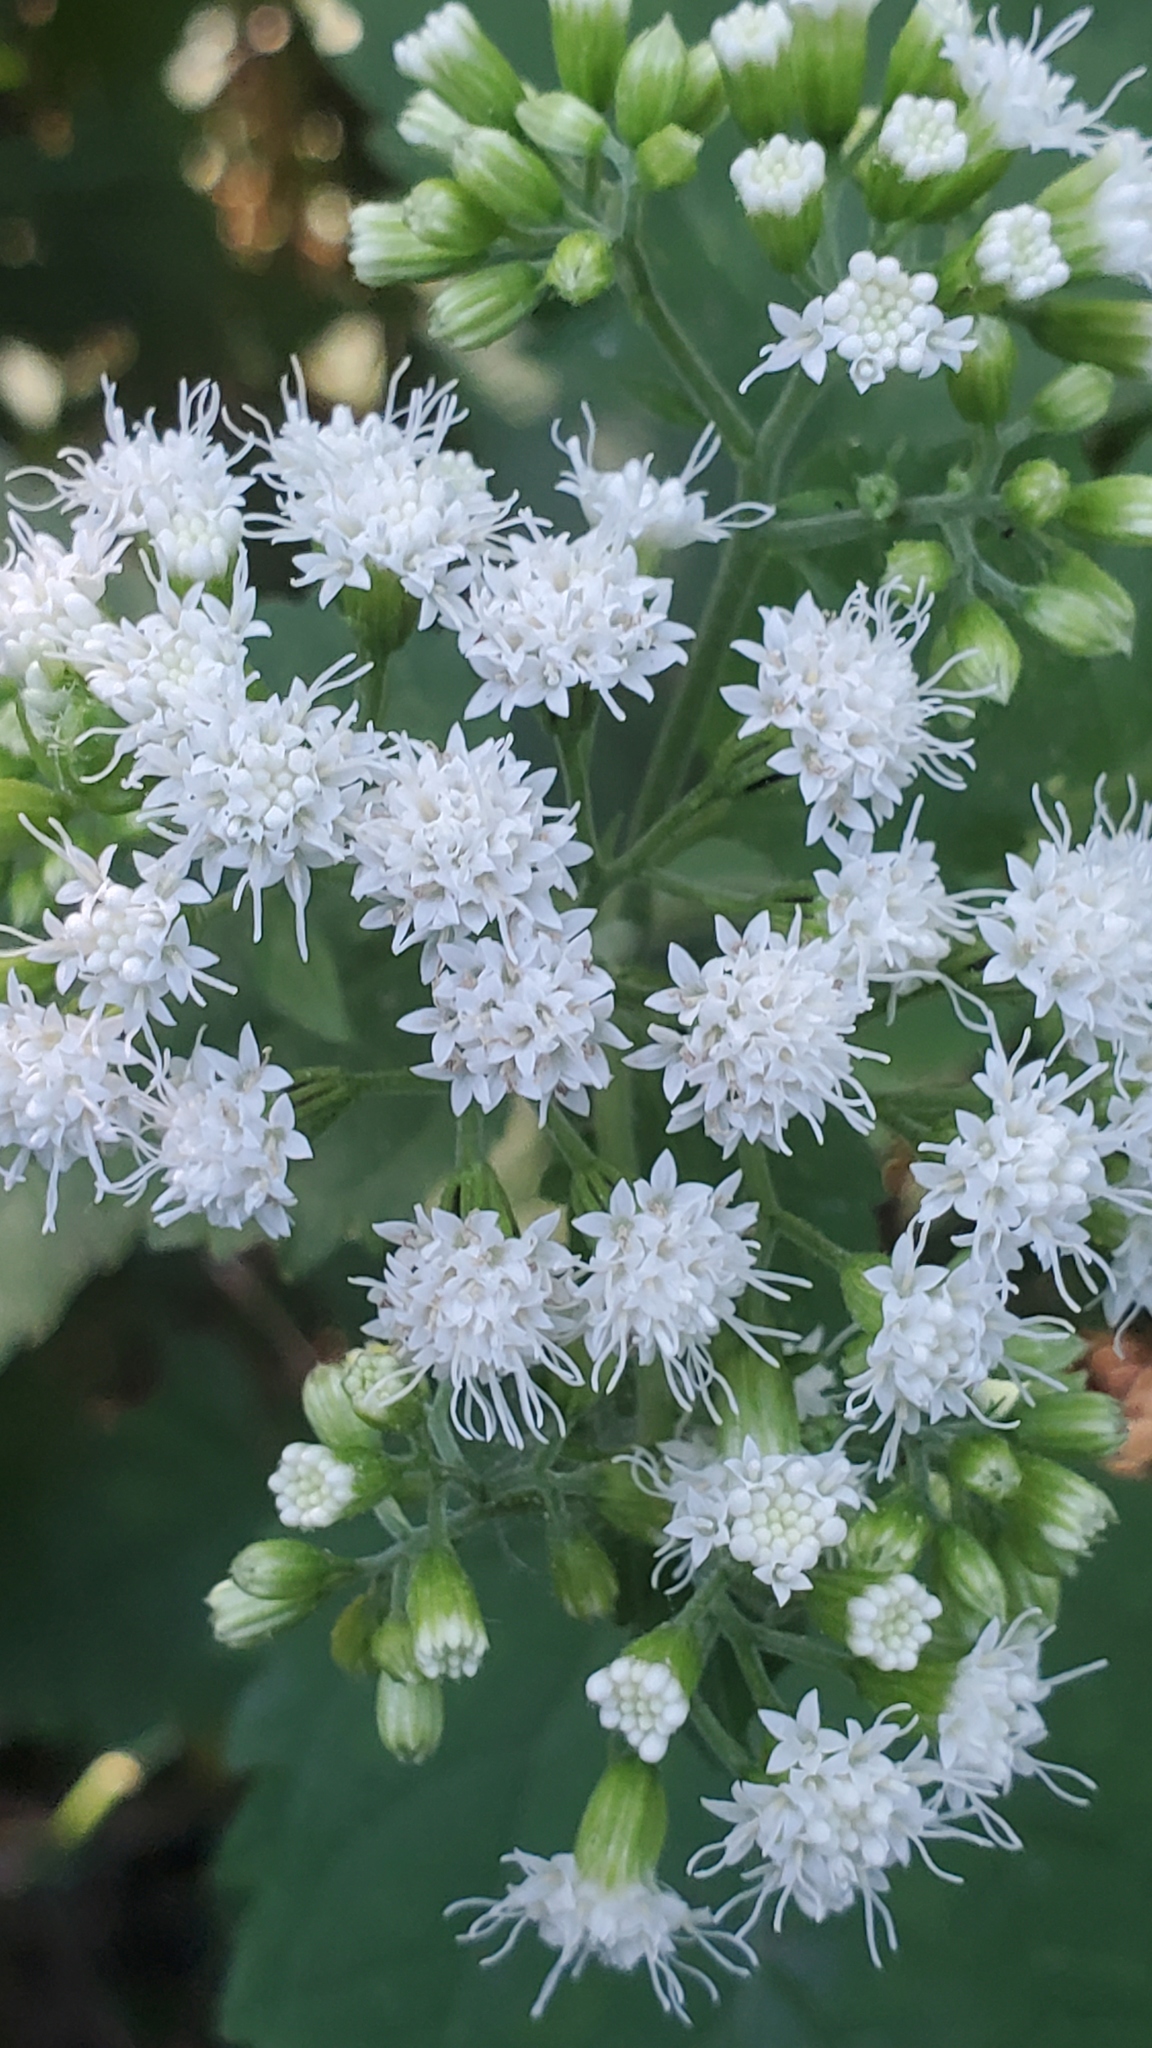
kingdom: Plantae
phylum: Tracheophyta
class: Magnoliopsida
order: Asterales
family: Asteraceae
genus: Ageratina
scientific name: Ageratina altissima
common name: White snakeroot
